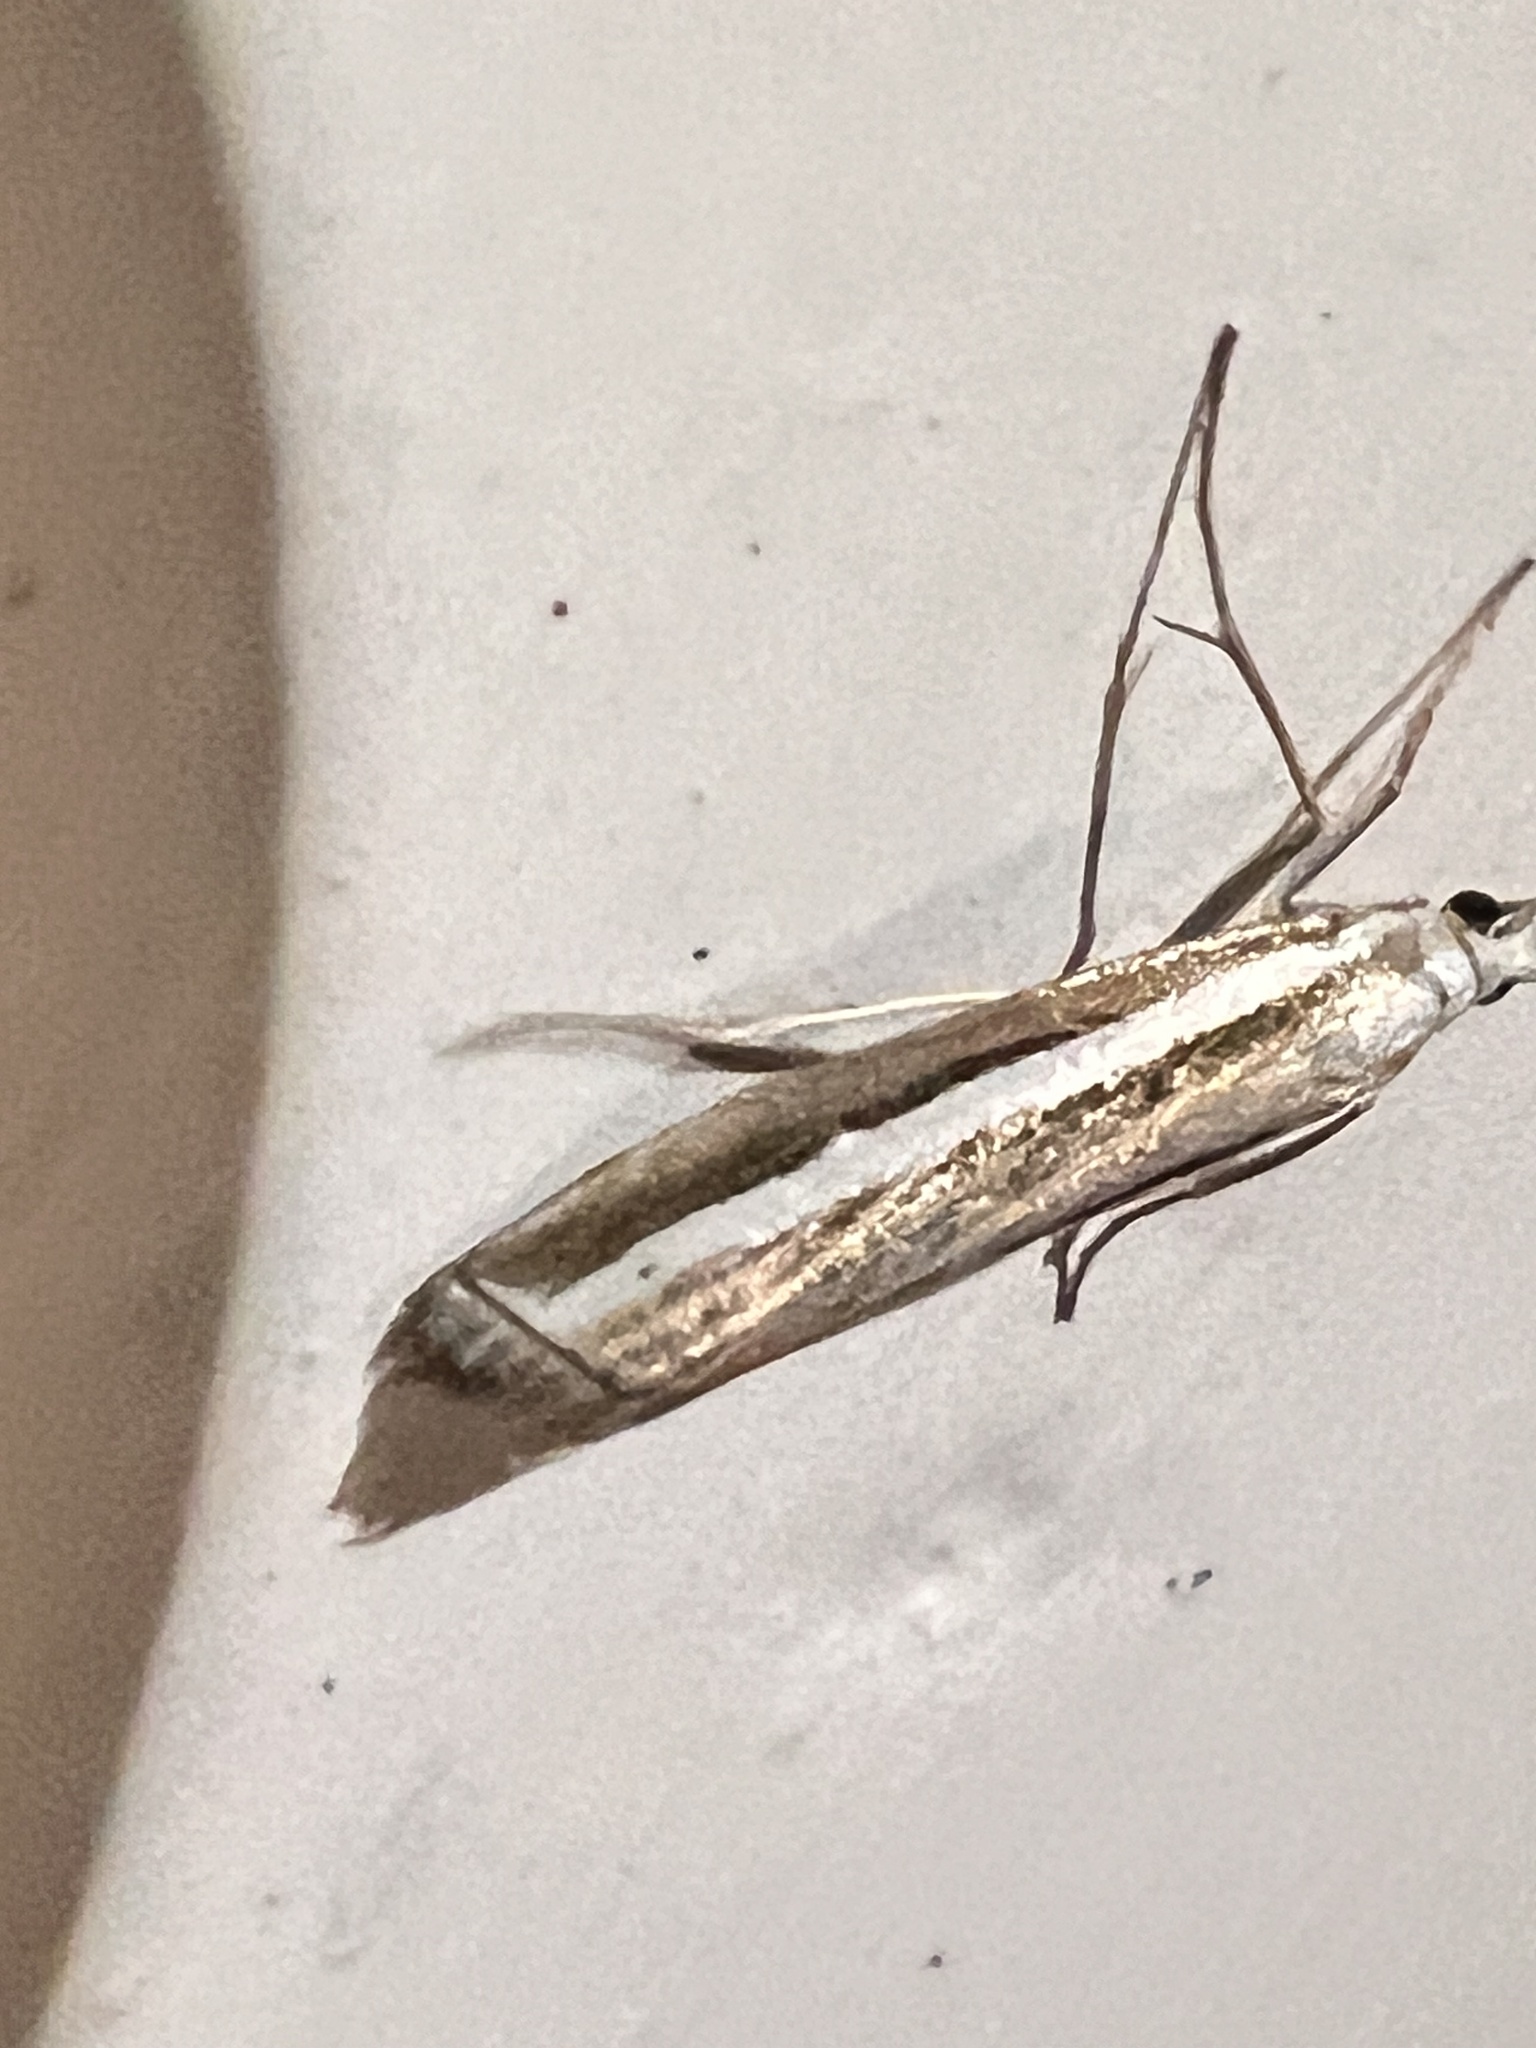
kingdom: Animalia
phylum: Arthropoda
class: Insecta
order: Lepidoptera
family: Crambidae
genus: Orocrambus
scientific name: Orocrambus flexuosellus
